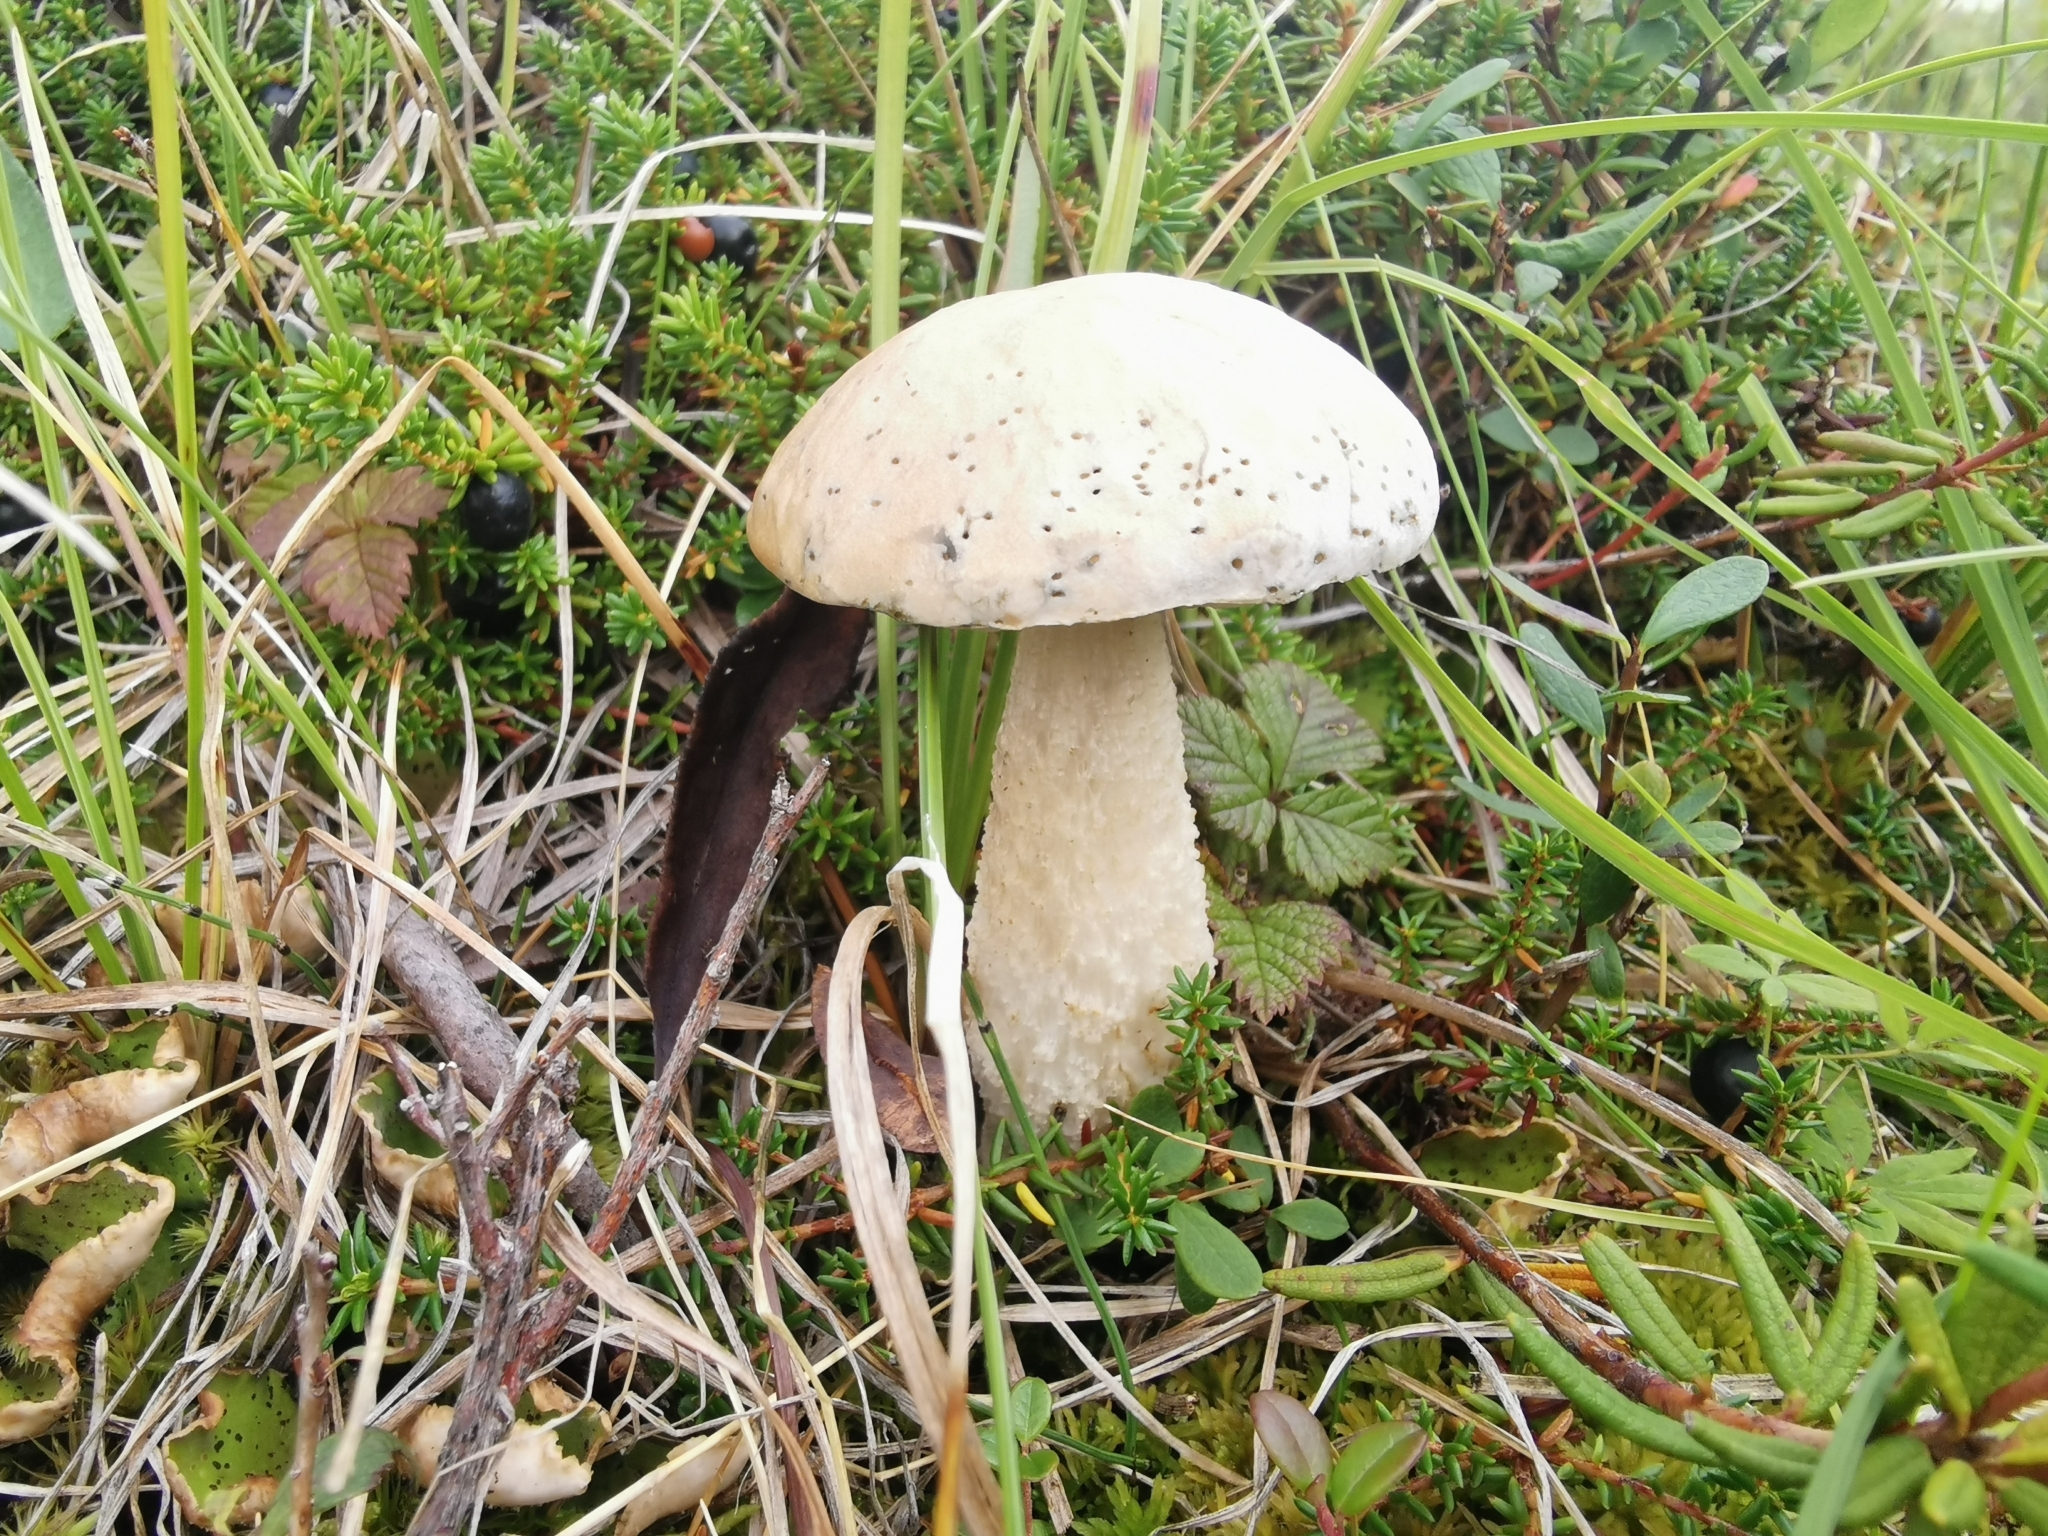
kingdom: Fungi
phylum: Basidiomycota
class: Agaricomycetes
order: Boletales
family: Boletaceae
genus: Leccinum
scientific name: Leccinum versipelle
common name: Orange birch bolete
